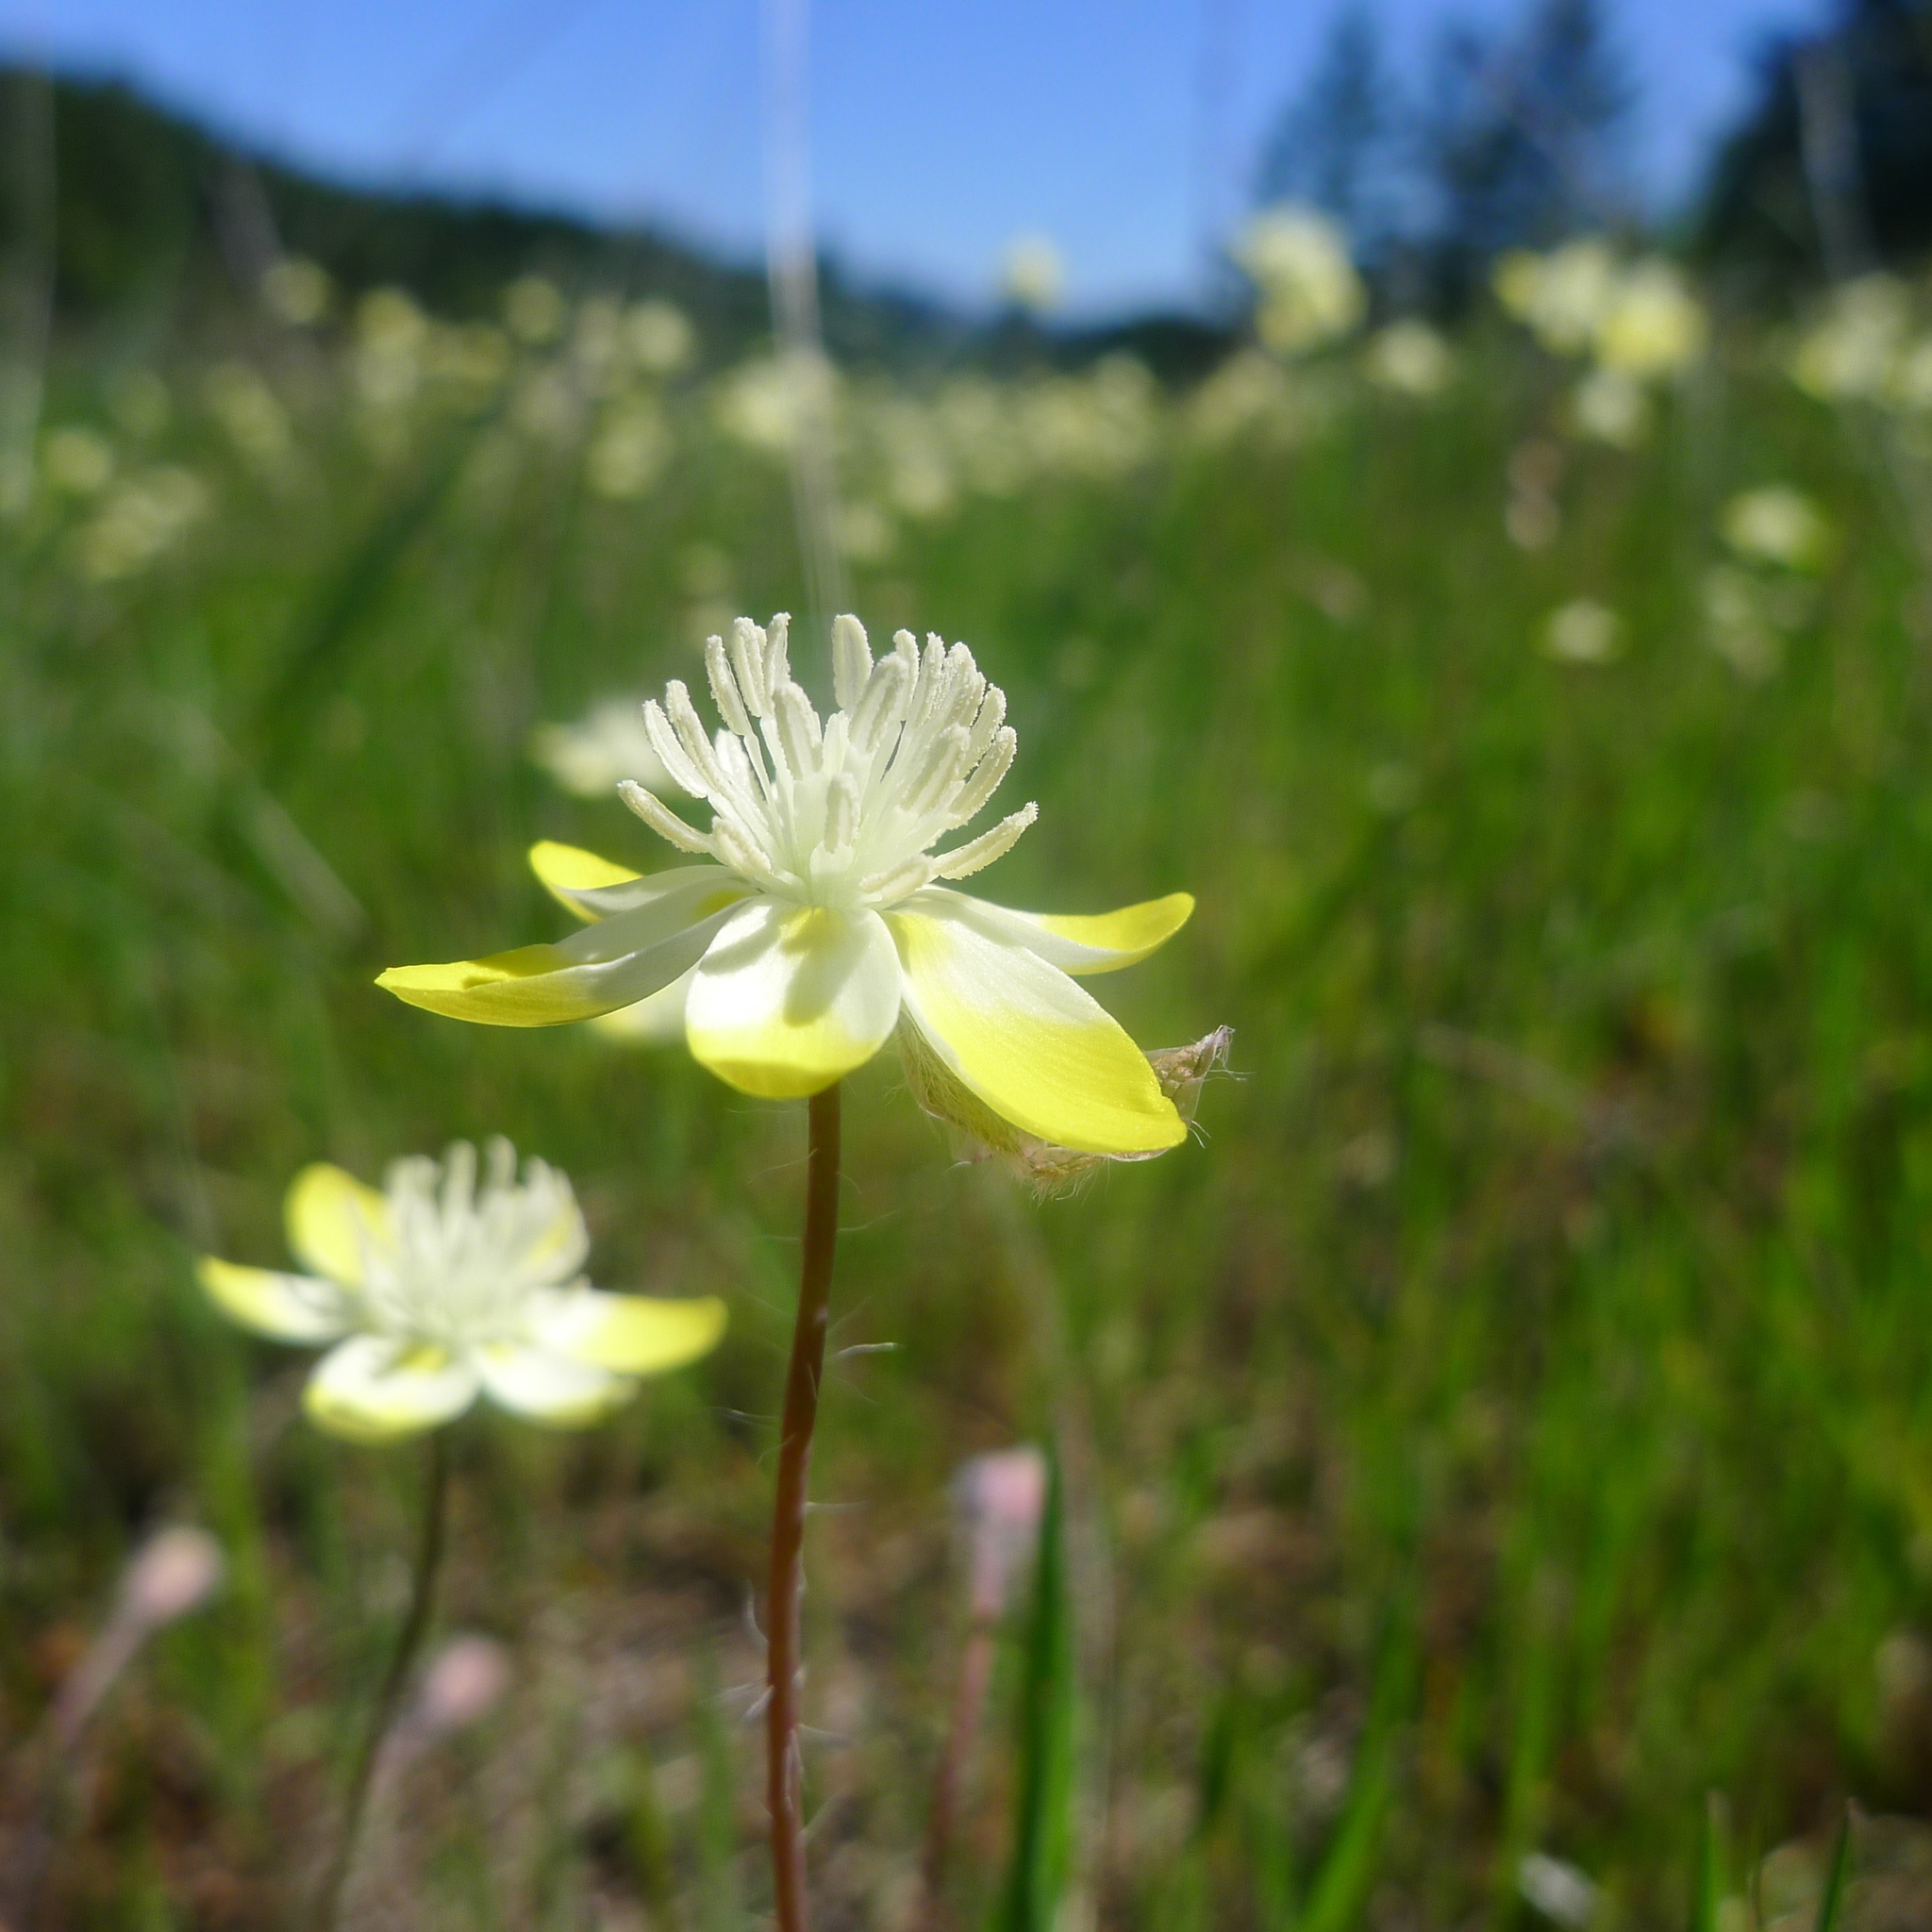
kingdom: Plantae
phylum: Tracheophyta
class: Magnoliopsida
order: Ranunculales
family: Papaveraceae
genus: Platystemon
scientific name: Platystemon californicus
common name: Cream-cups
